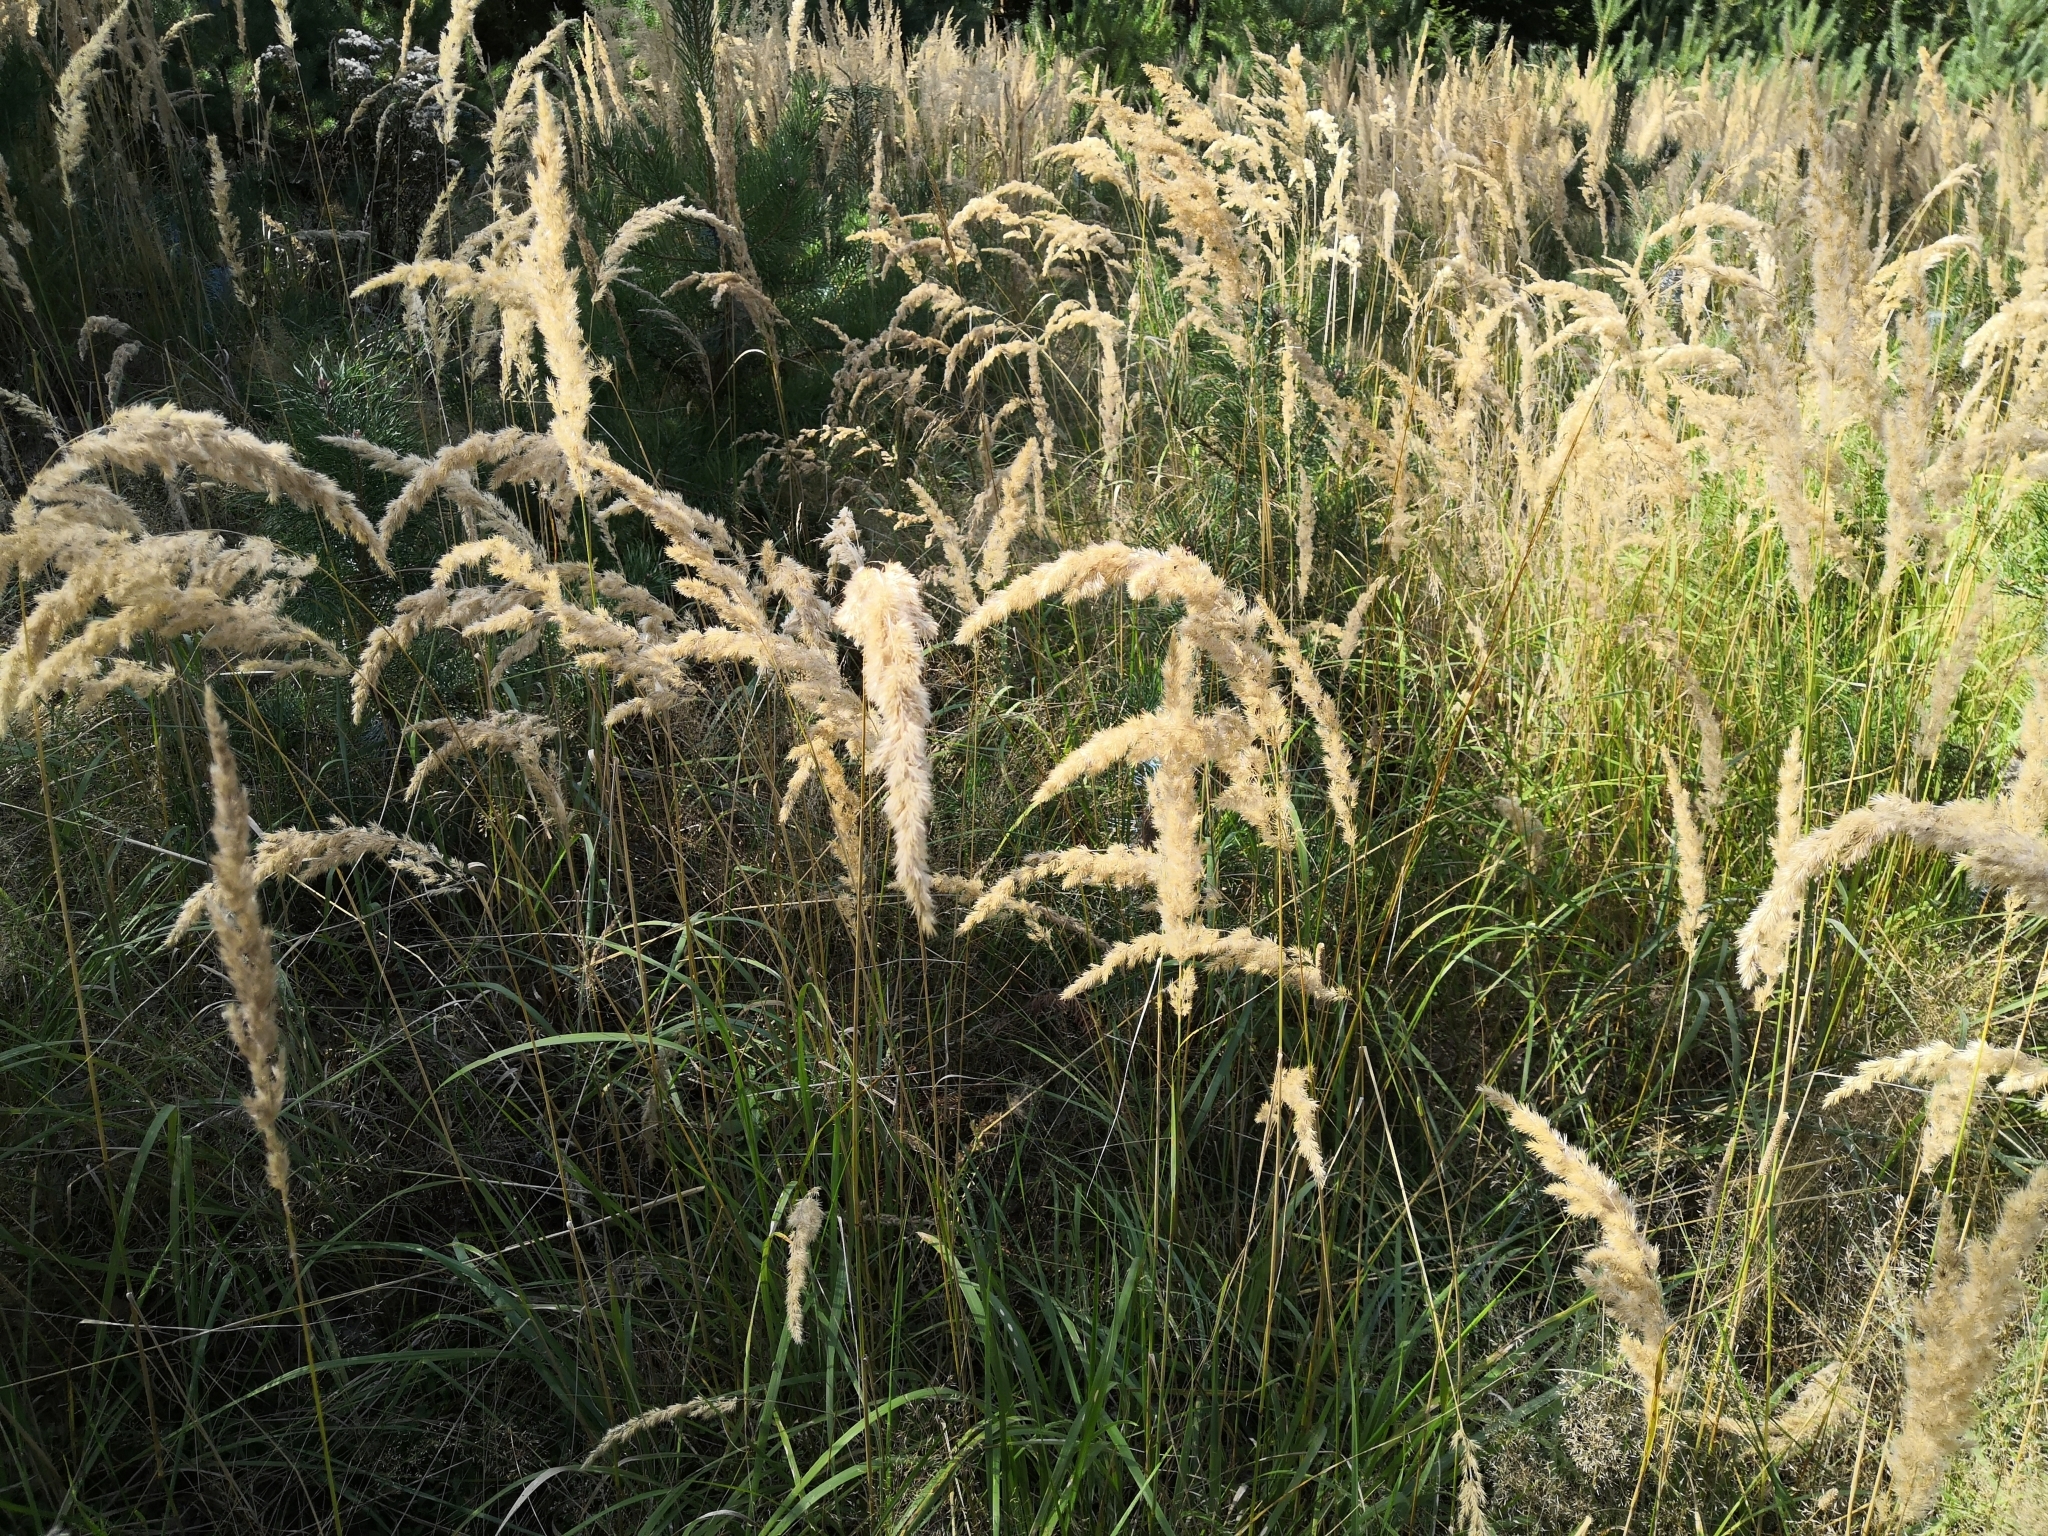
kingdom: Plantae
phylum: Tracheophyta
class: Liliopsida
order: Poales
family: Poaceae
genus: Calamagrostis
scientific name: Calamagrostis epigejos
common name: Wood small-reed
